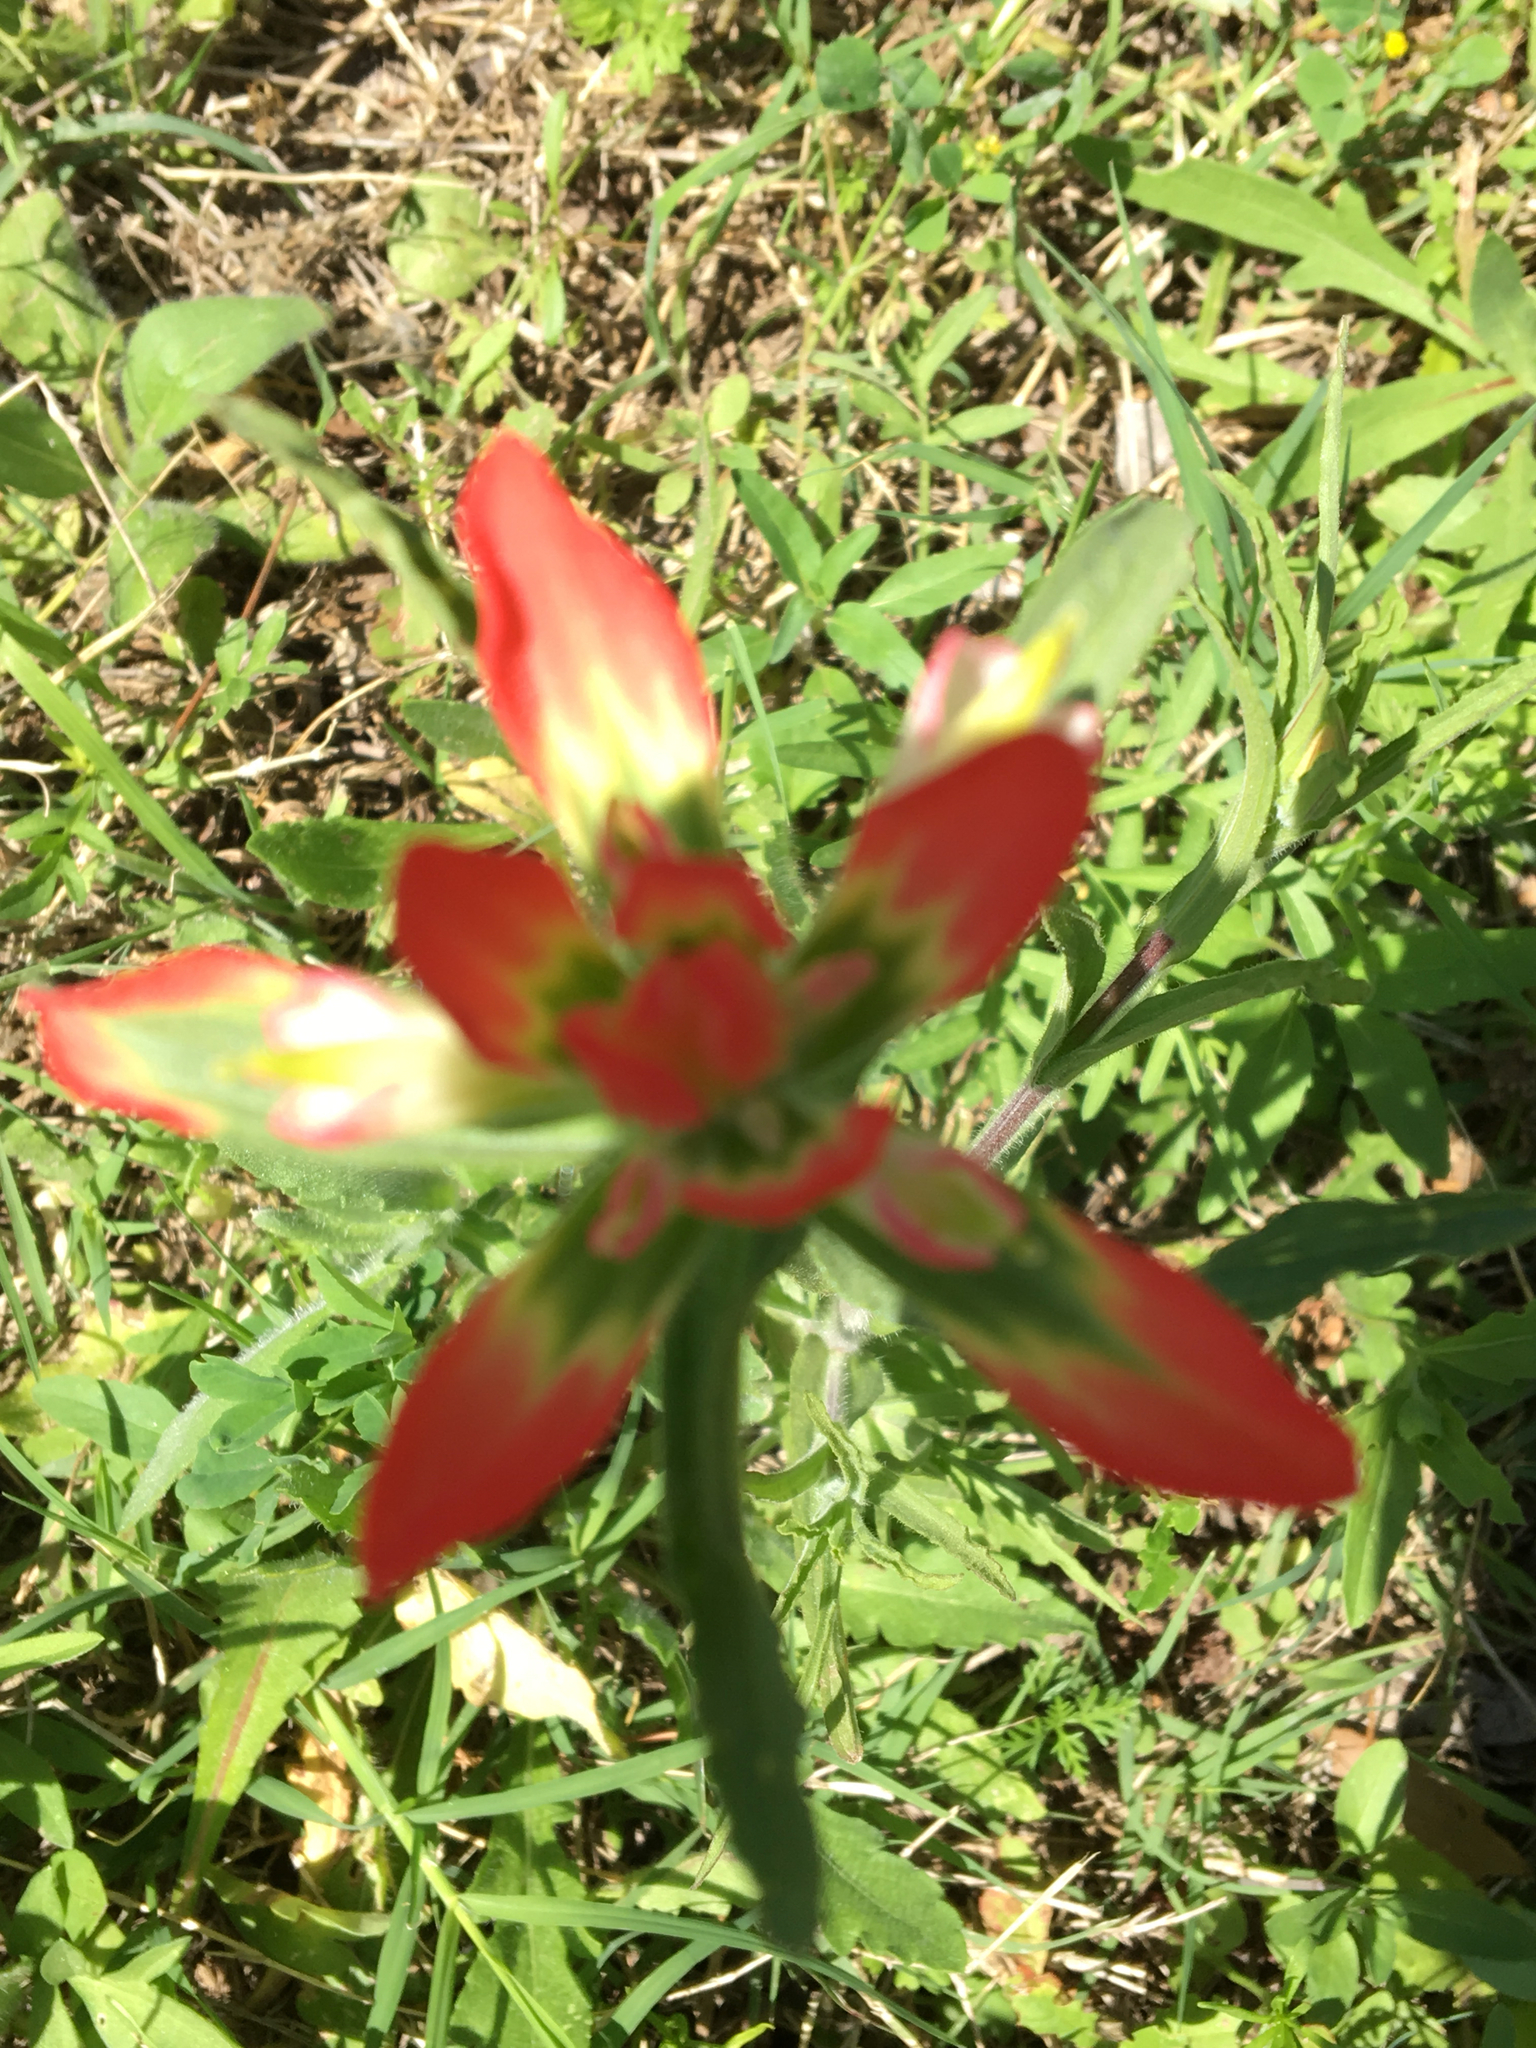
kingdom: Plantae
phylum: Tracheophyta
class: Magnoliopsida
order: Lamiales
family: Orobanchaceae
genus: Castilleja
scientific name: Castilleja indivisa
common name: Texas paintbrush
